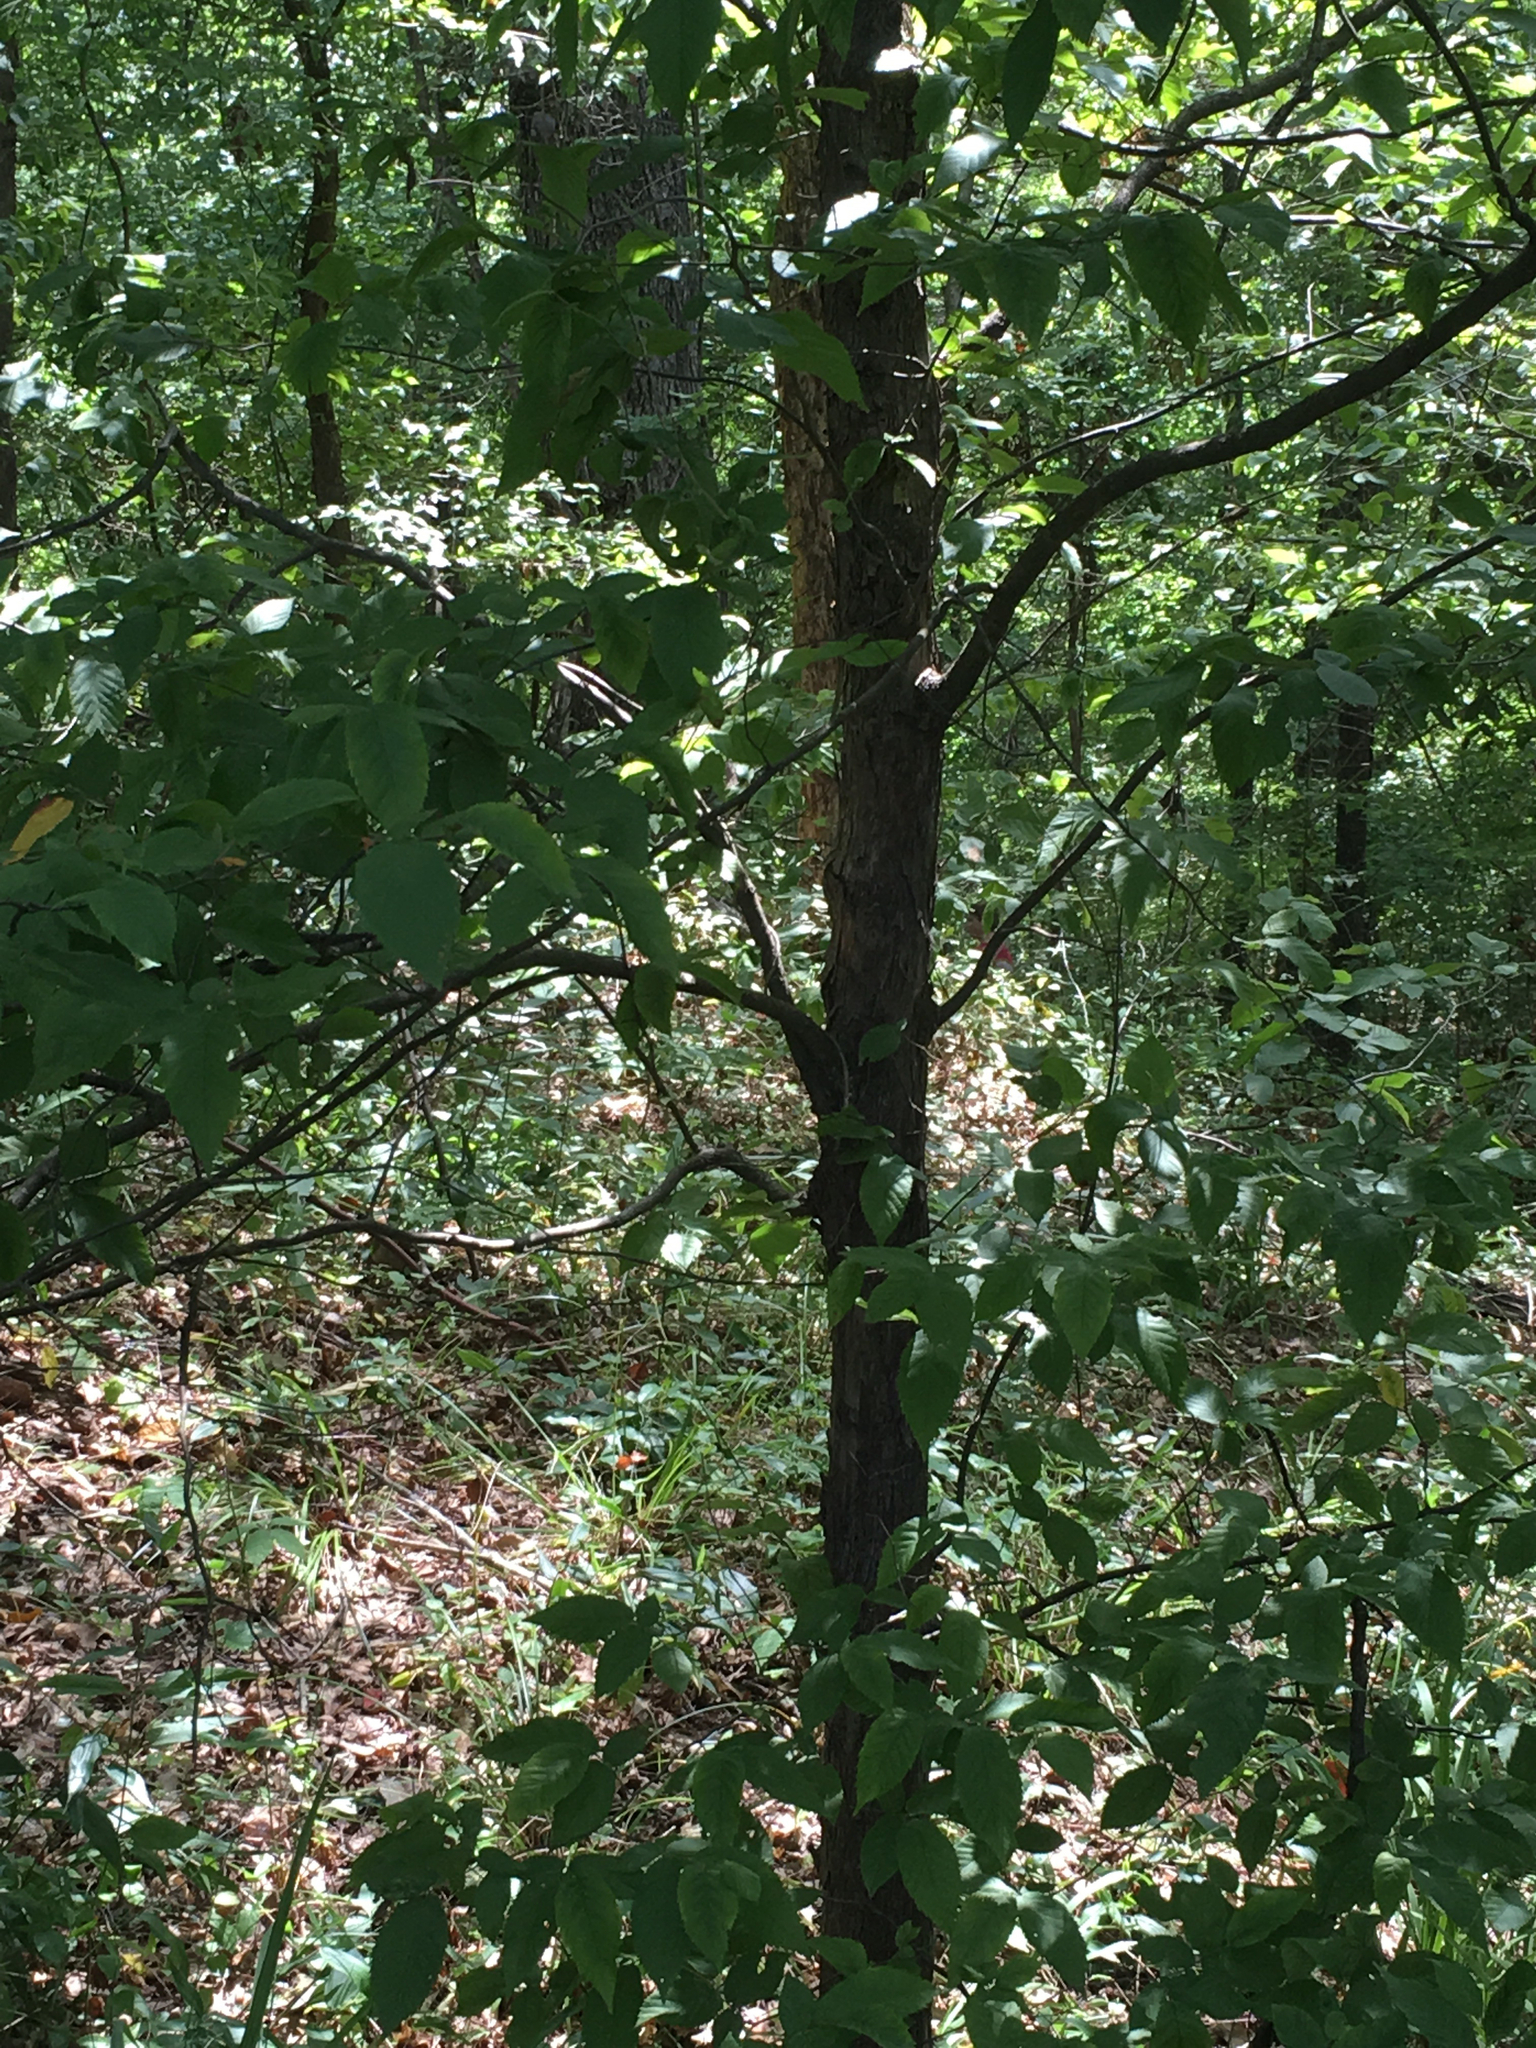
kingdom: Plantae
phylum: Tracheophyta
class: Magnoliopsida
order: Fagales
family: Betulaceae
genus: Ostrya
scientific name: Ostrya virginiana
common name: Ironwood
